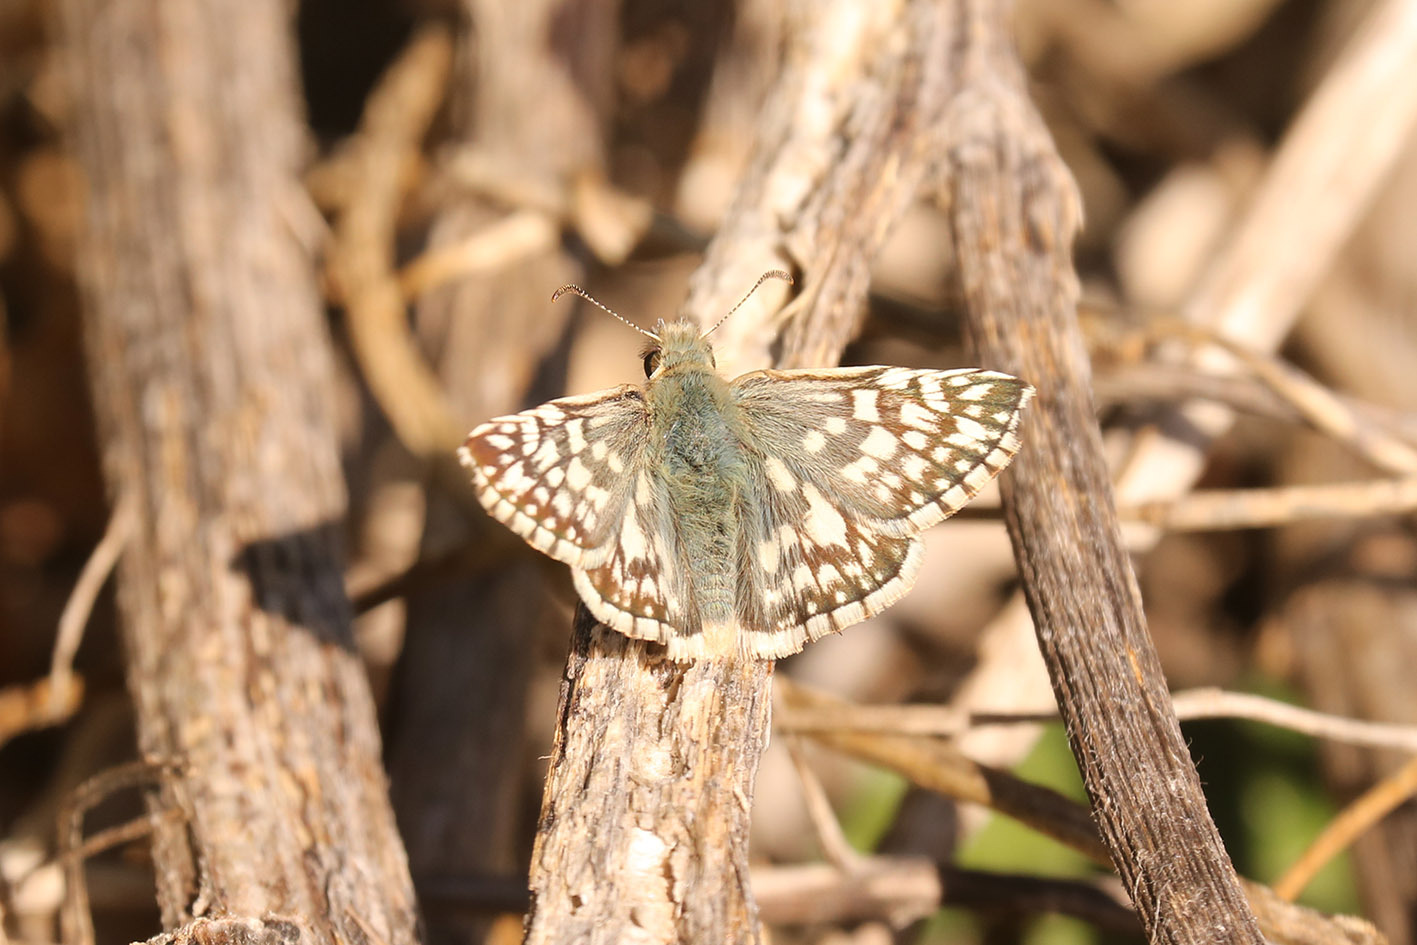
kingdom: Animalia
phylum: Arthropoda
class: Insecta
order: Lepidoptera
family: Hesperiidae
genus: Heliopetes
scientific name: Heliopetes americanus
